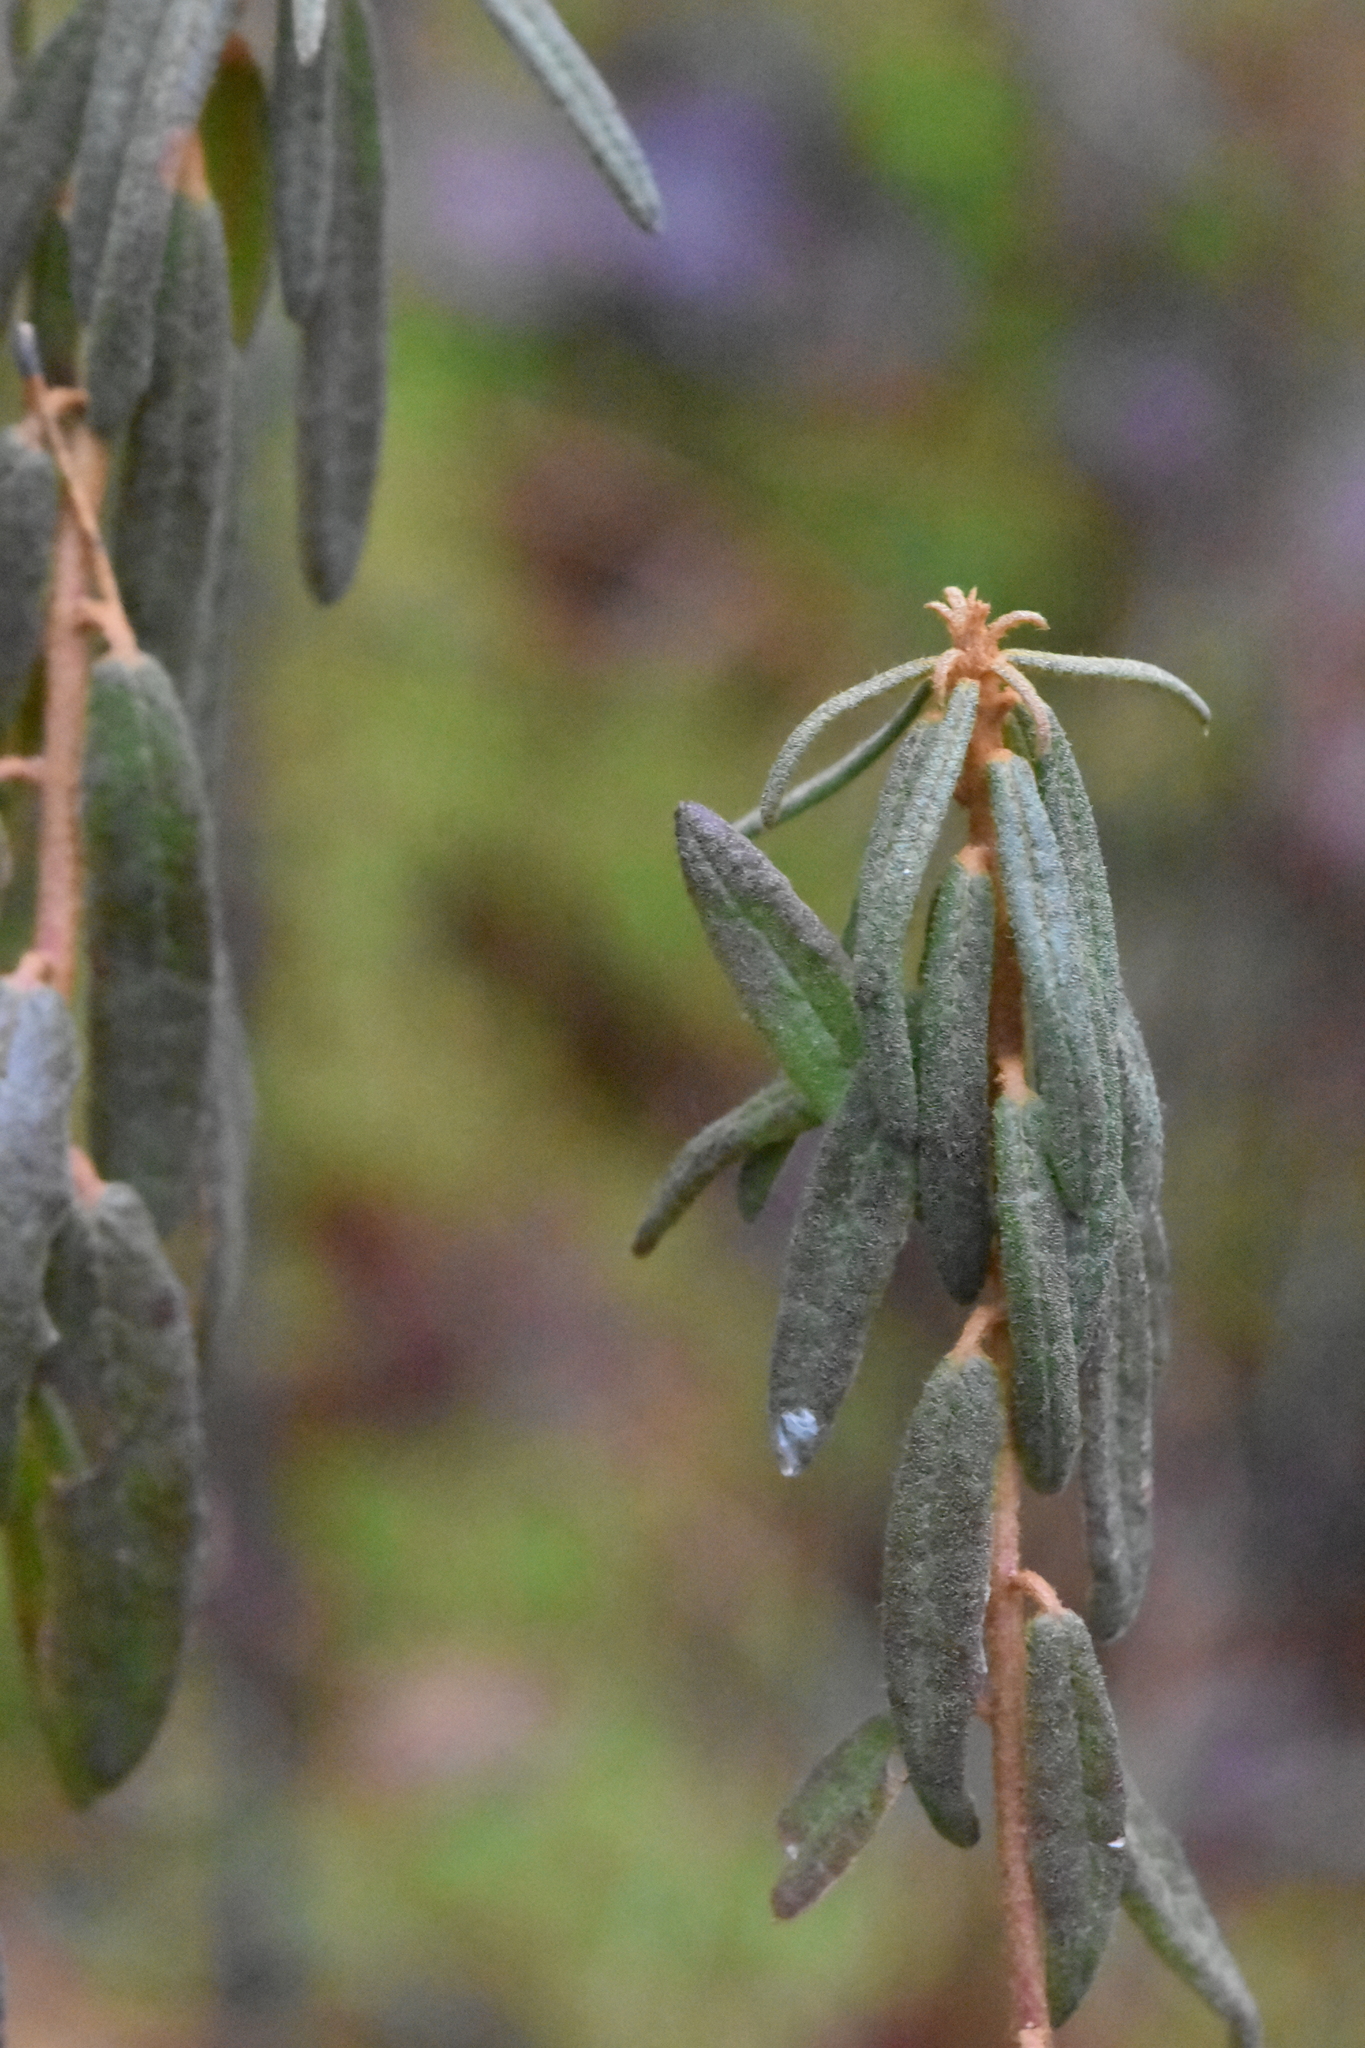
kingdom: Plantae
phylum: Tracheophyta
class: Magnoliopsida
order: Ericales
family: Ericaceae
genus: Rhododendron
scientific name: Rhododendron tomentosum
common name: Marsh labrador tea
